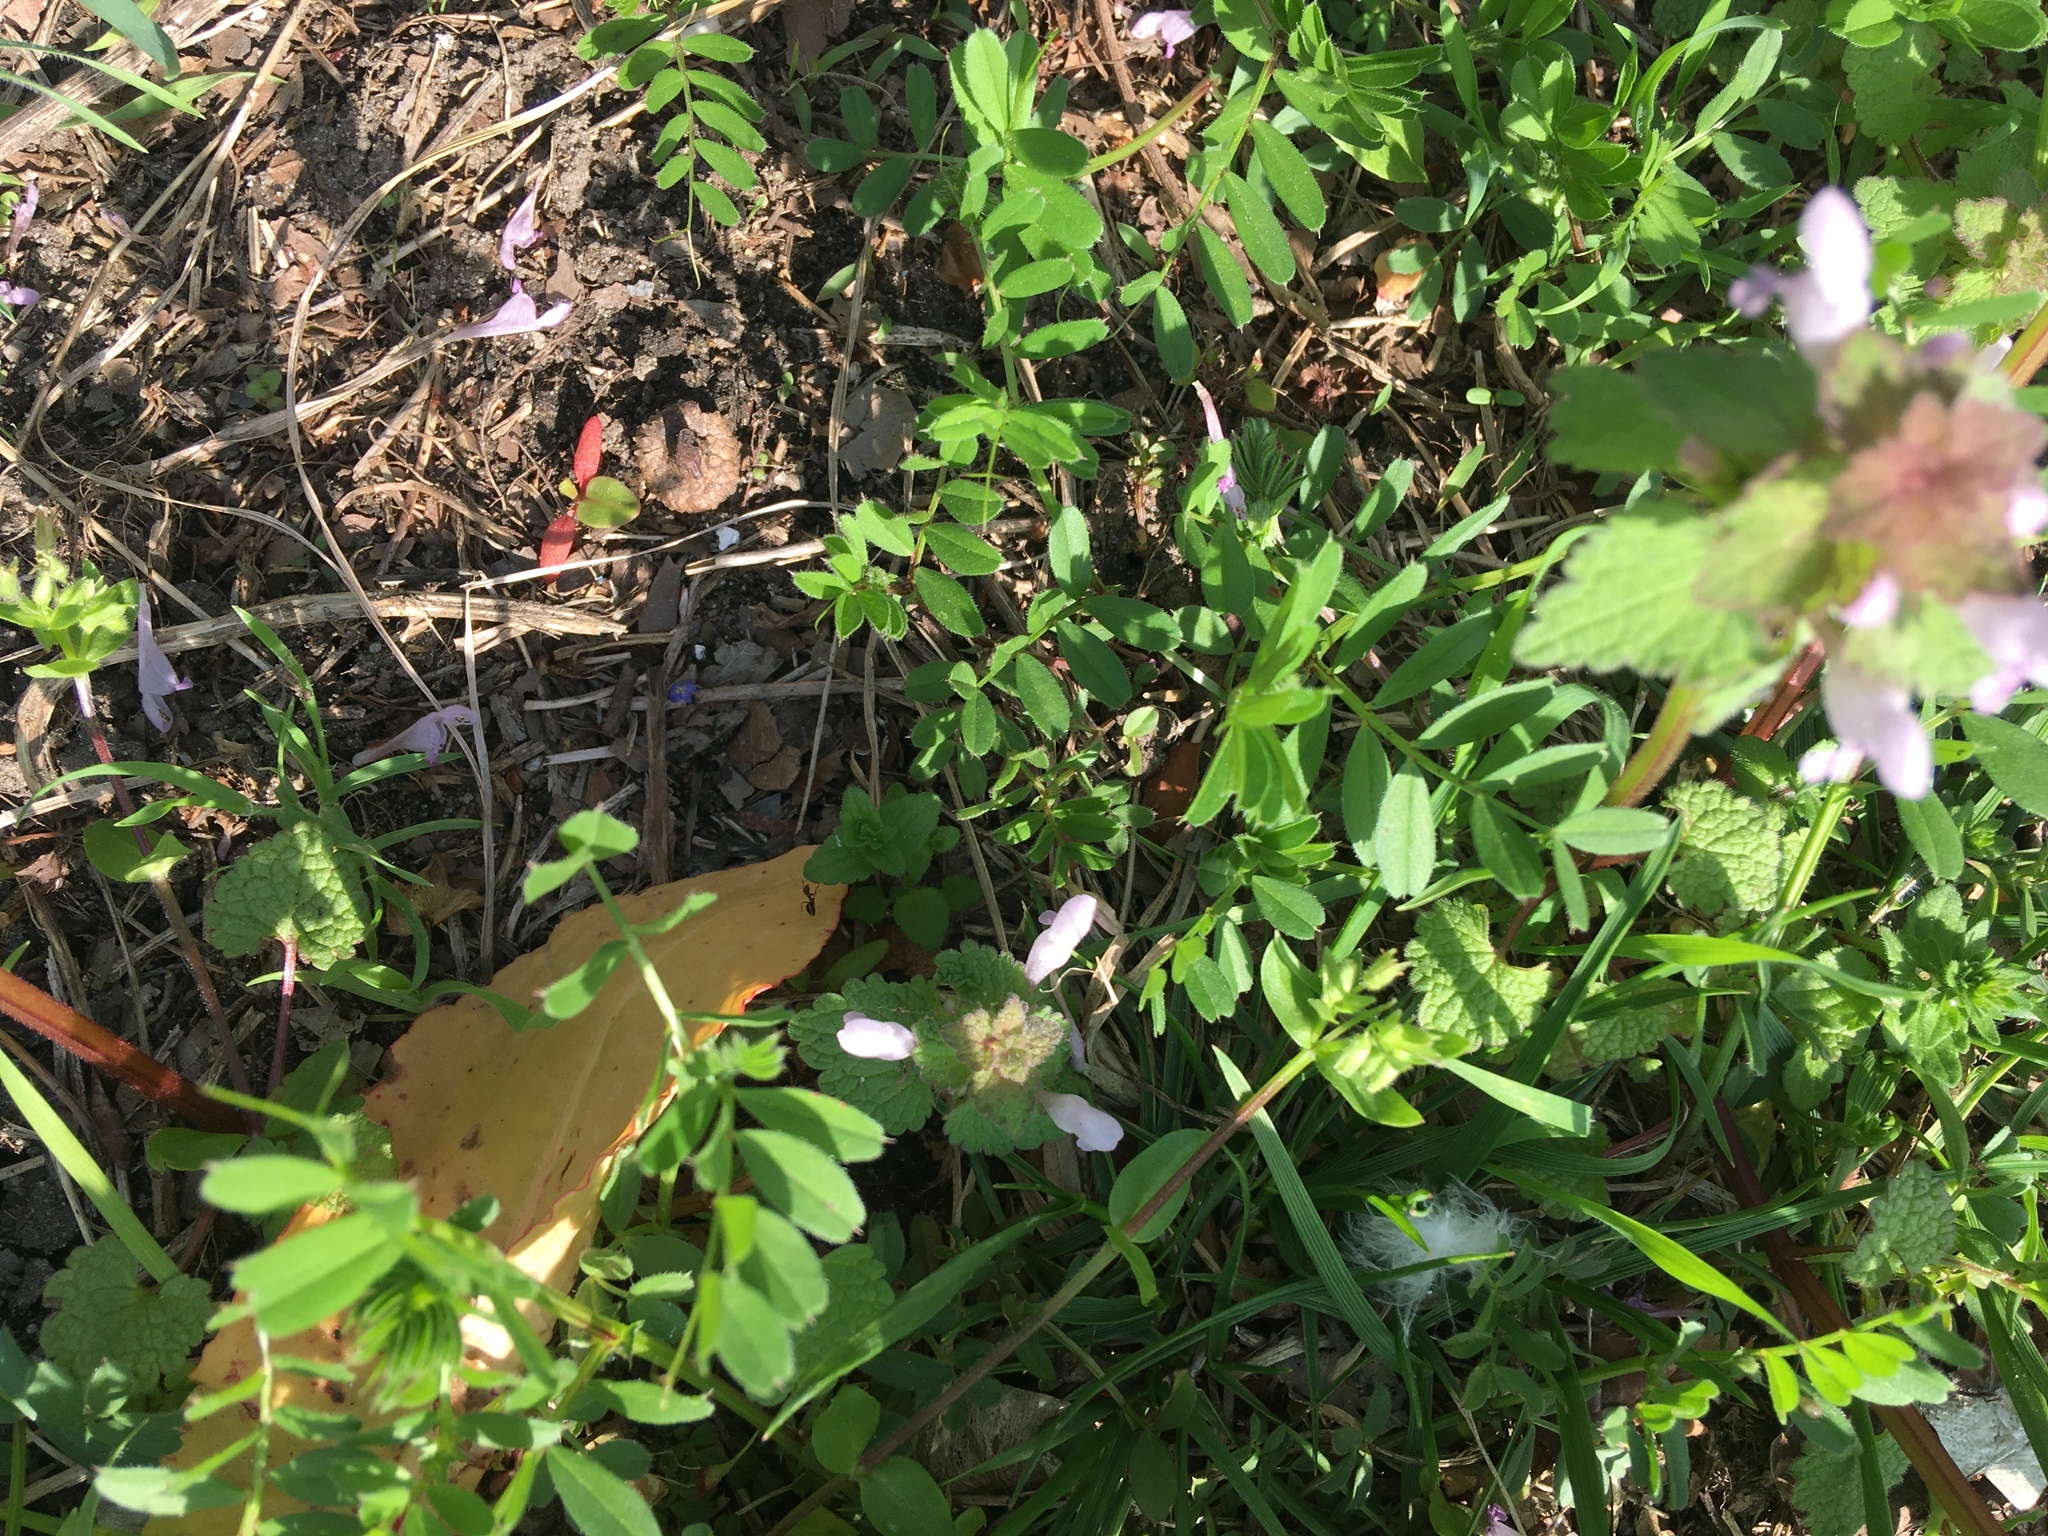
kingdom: Plantae
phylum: Tracheophyta
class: Magnoliopsida
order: Lamiales
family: Lamiaceae
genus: Lamium
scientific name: Lamium purpureum
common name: Red dead-nettle
